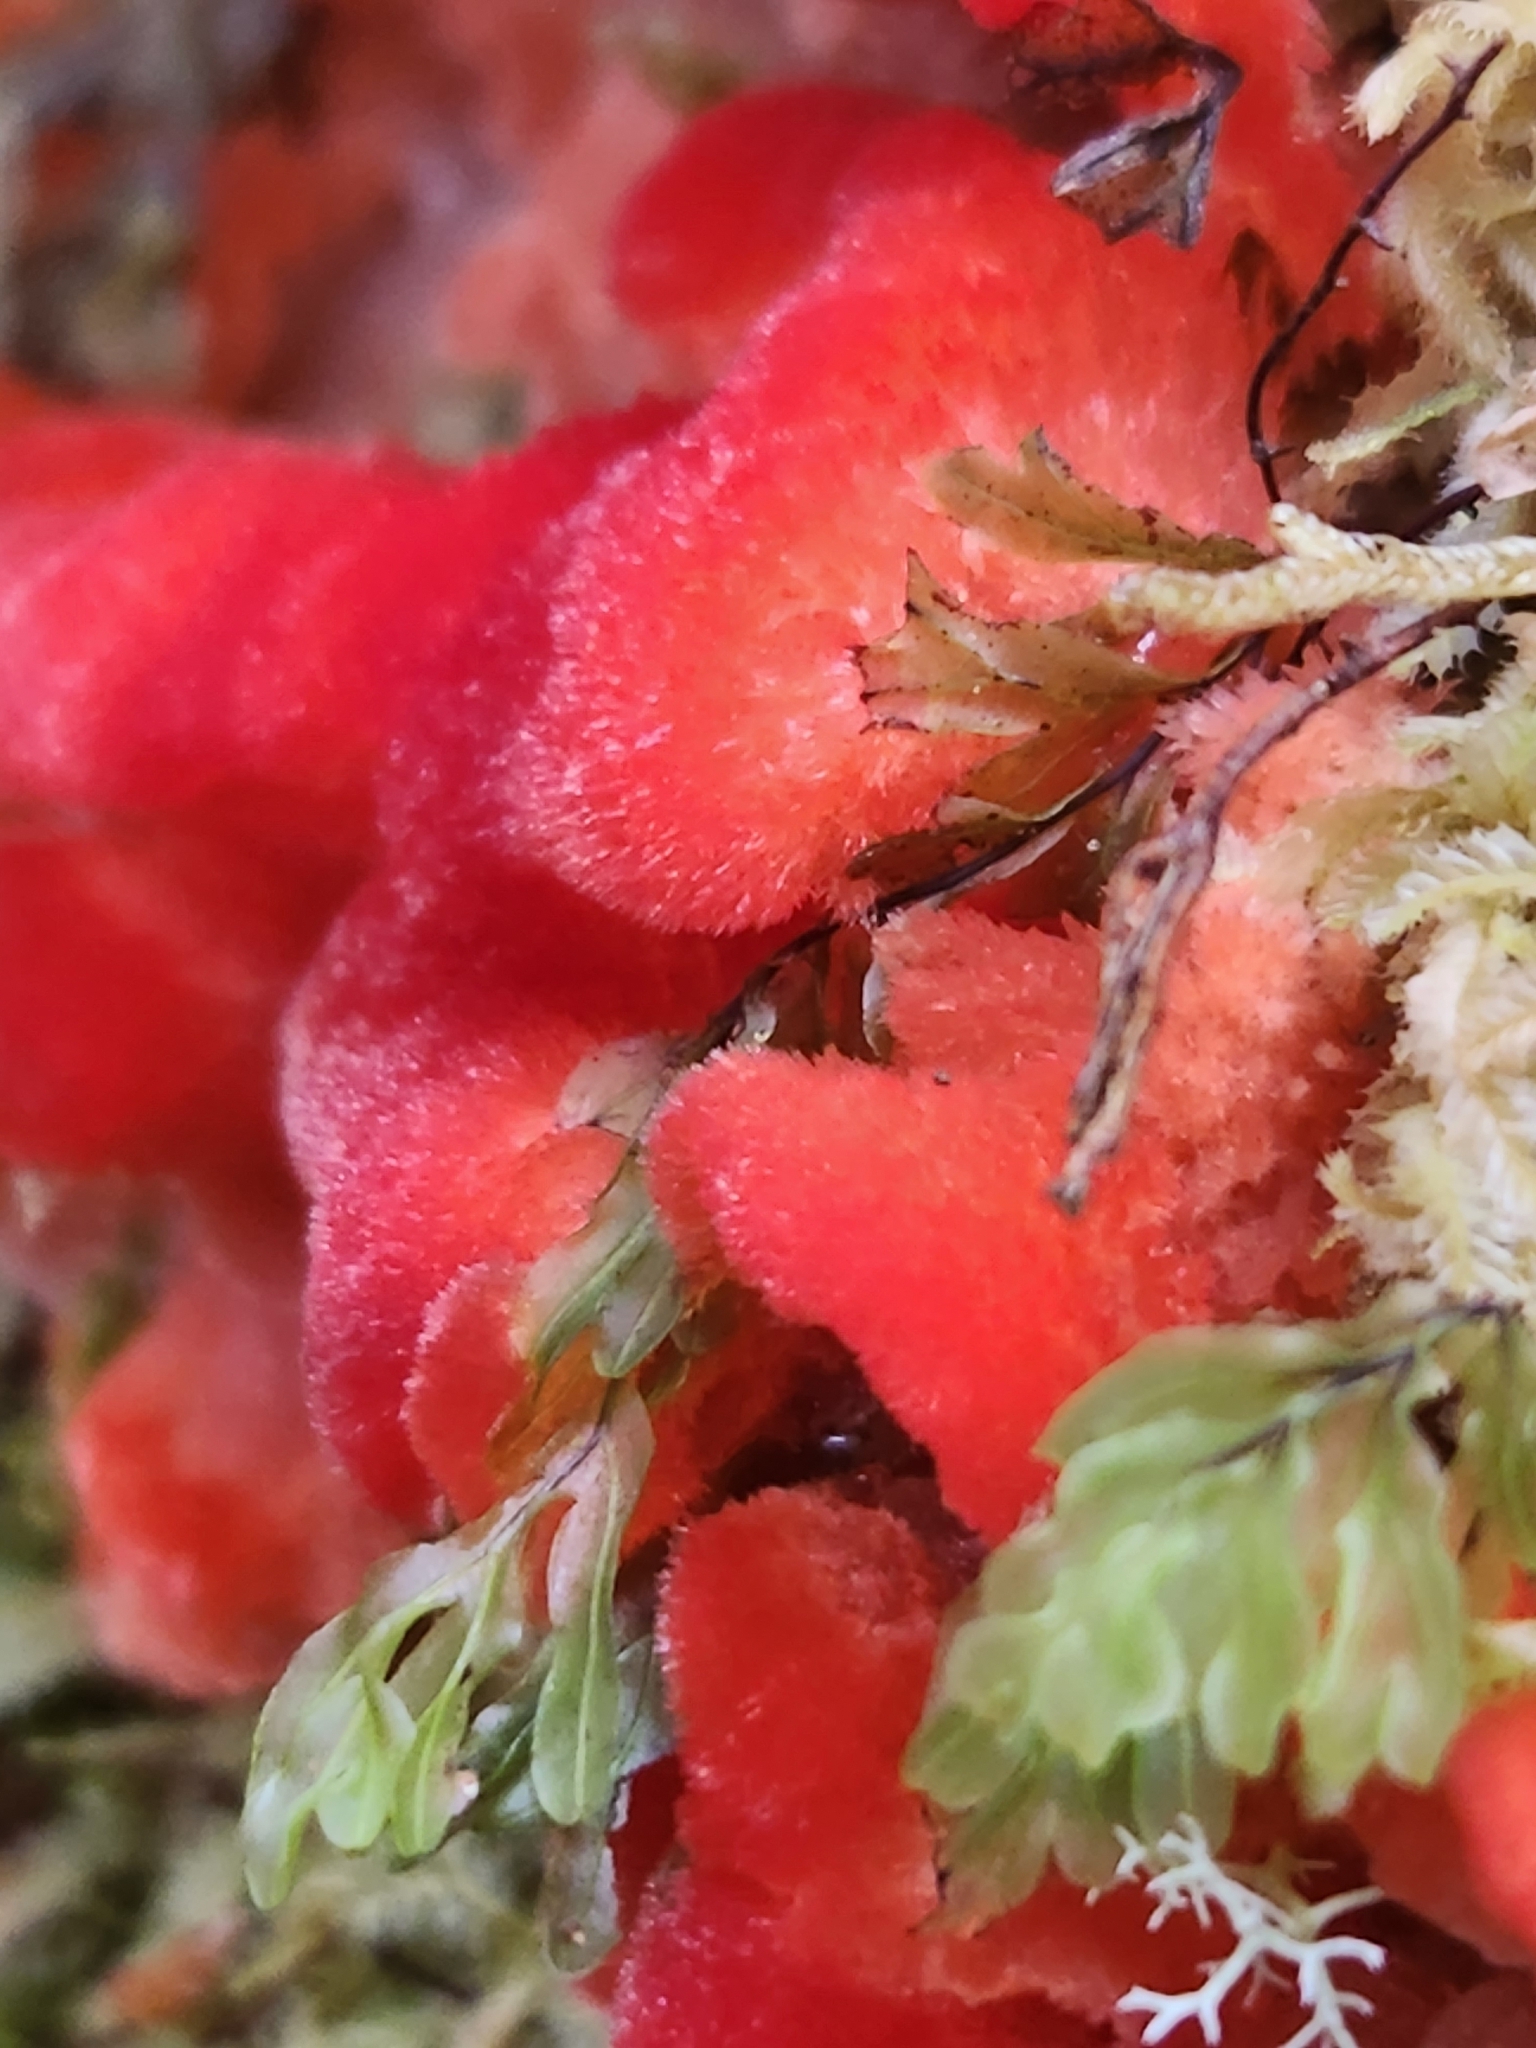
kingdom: Fungi
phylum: Basidiomycota
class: Agaricomycetes
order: Polyporales
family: Incrustoporiaceae
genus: Tyromyces
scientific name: Tyromyces pulcherrimus
